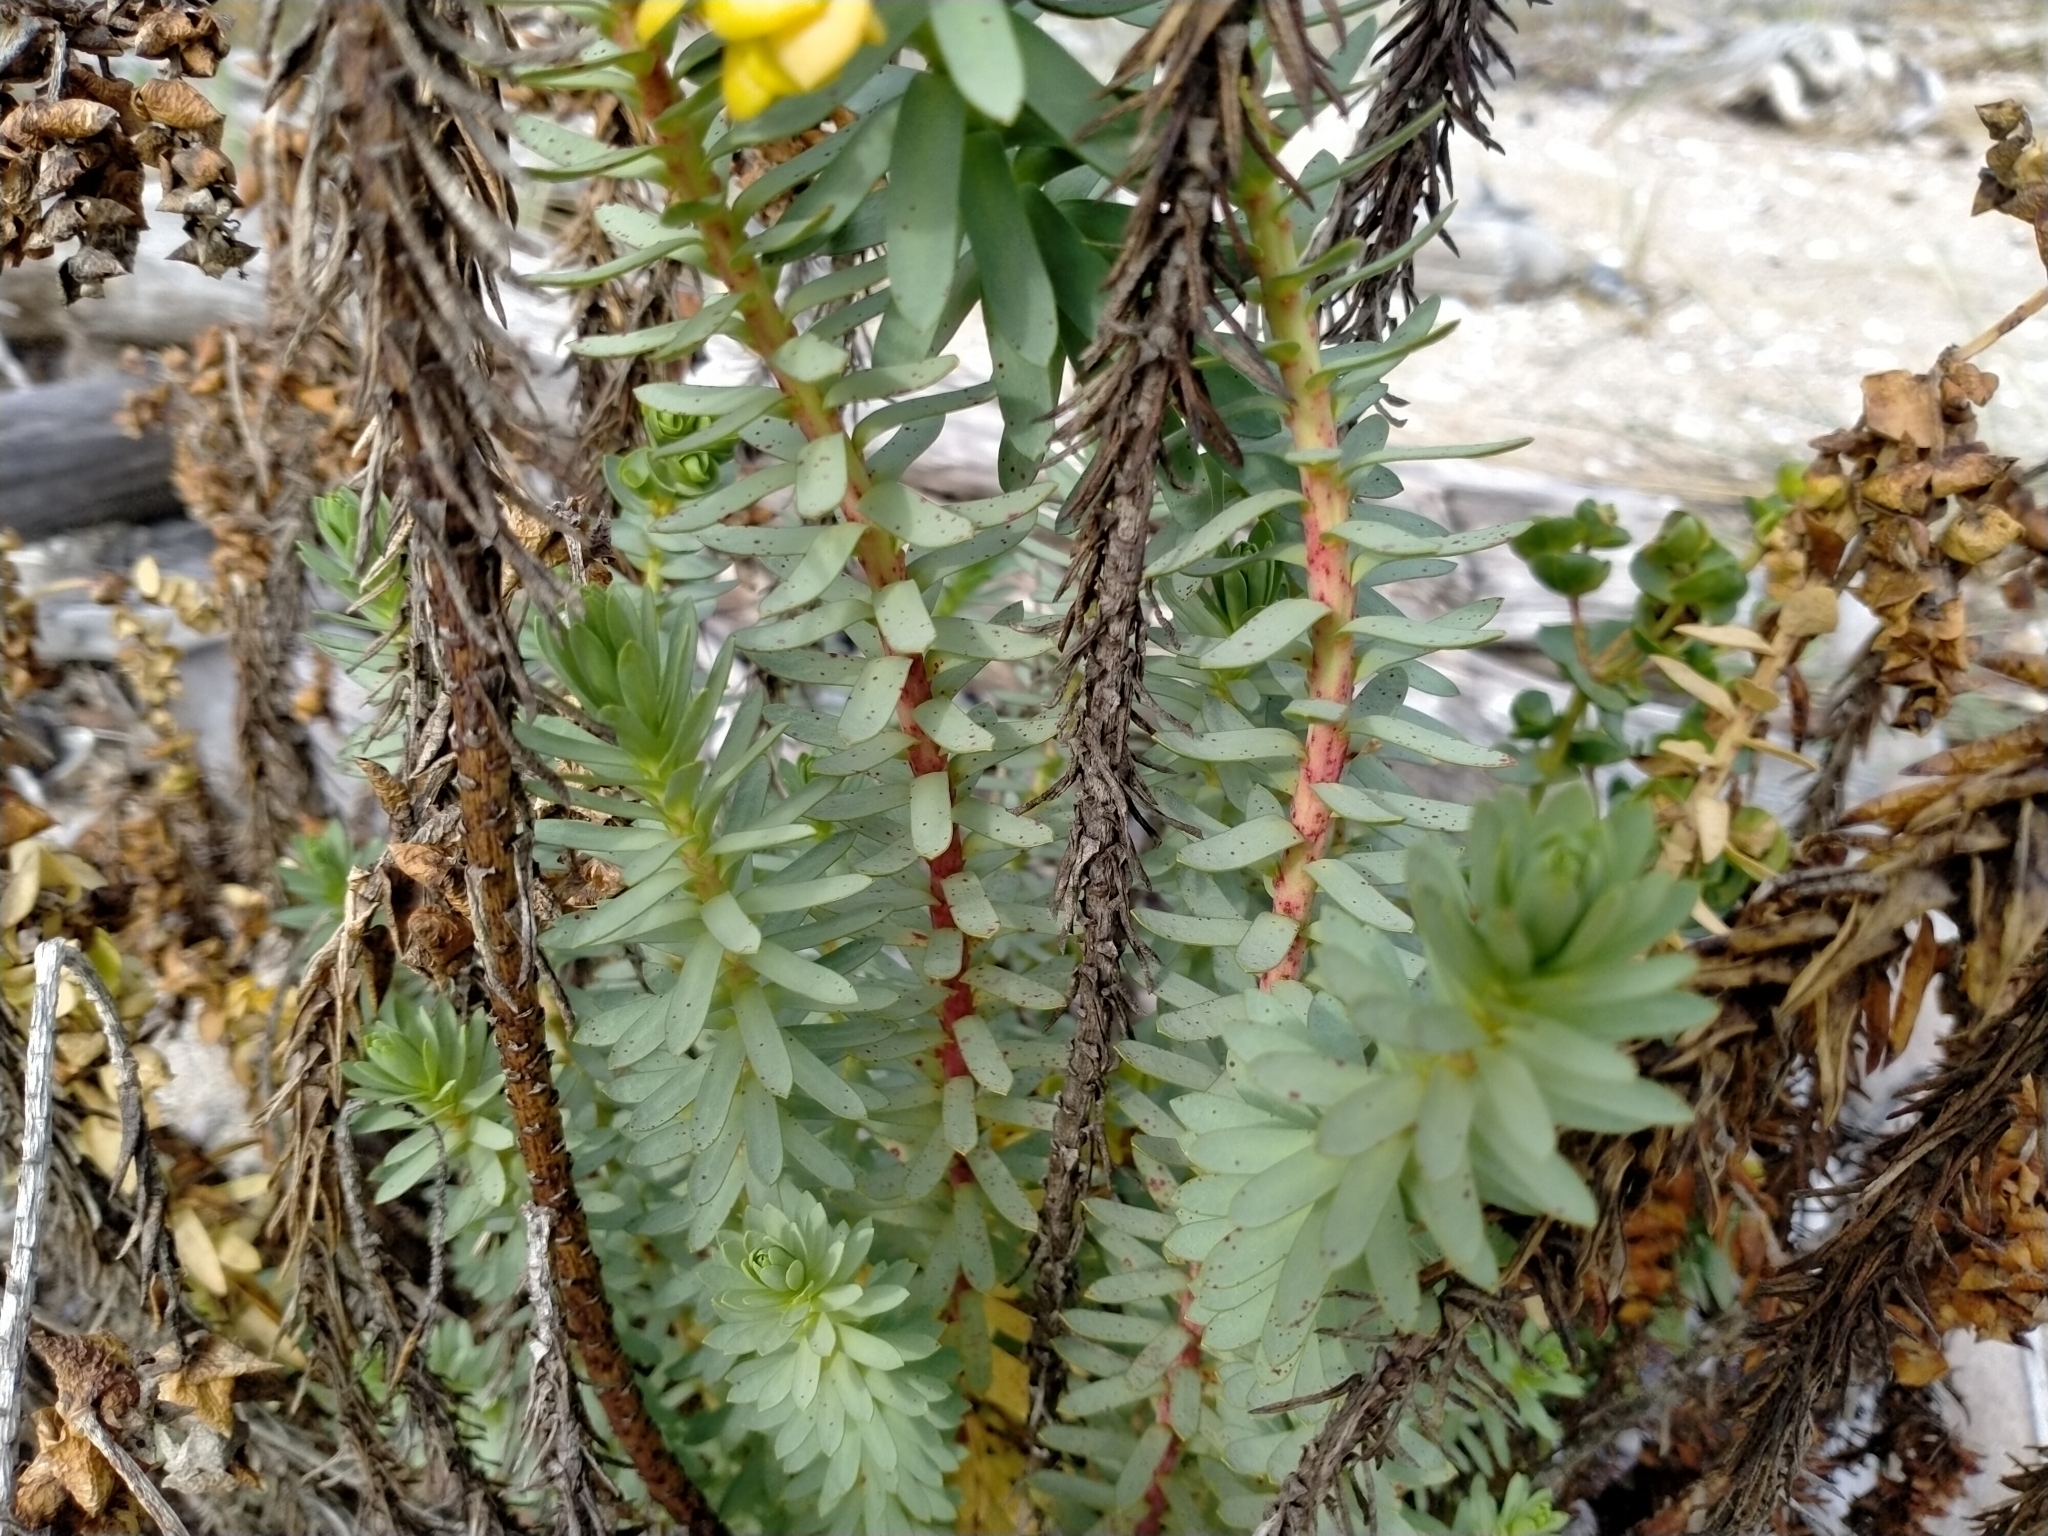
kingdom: Plantae
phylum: Tracheophyta
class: Magnoliopsida
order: Malpighiales
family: Euphorbiaceae
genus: Euphorbia
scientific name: Euphorbia paralias
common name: Sea spurge
